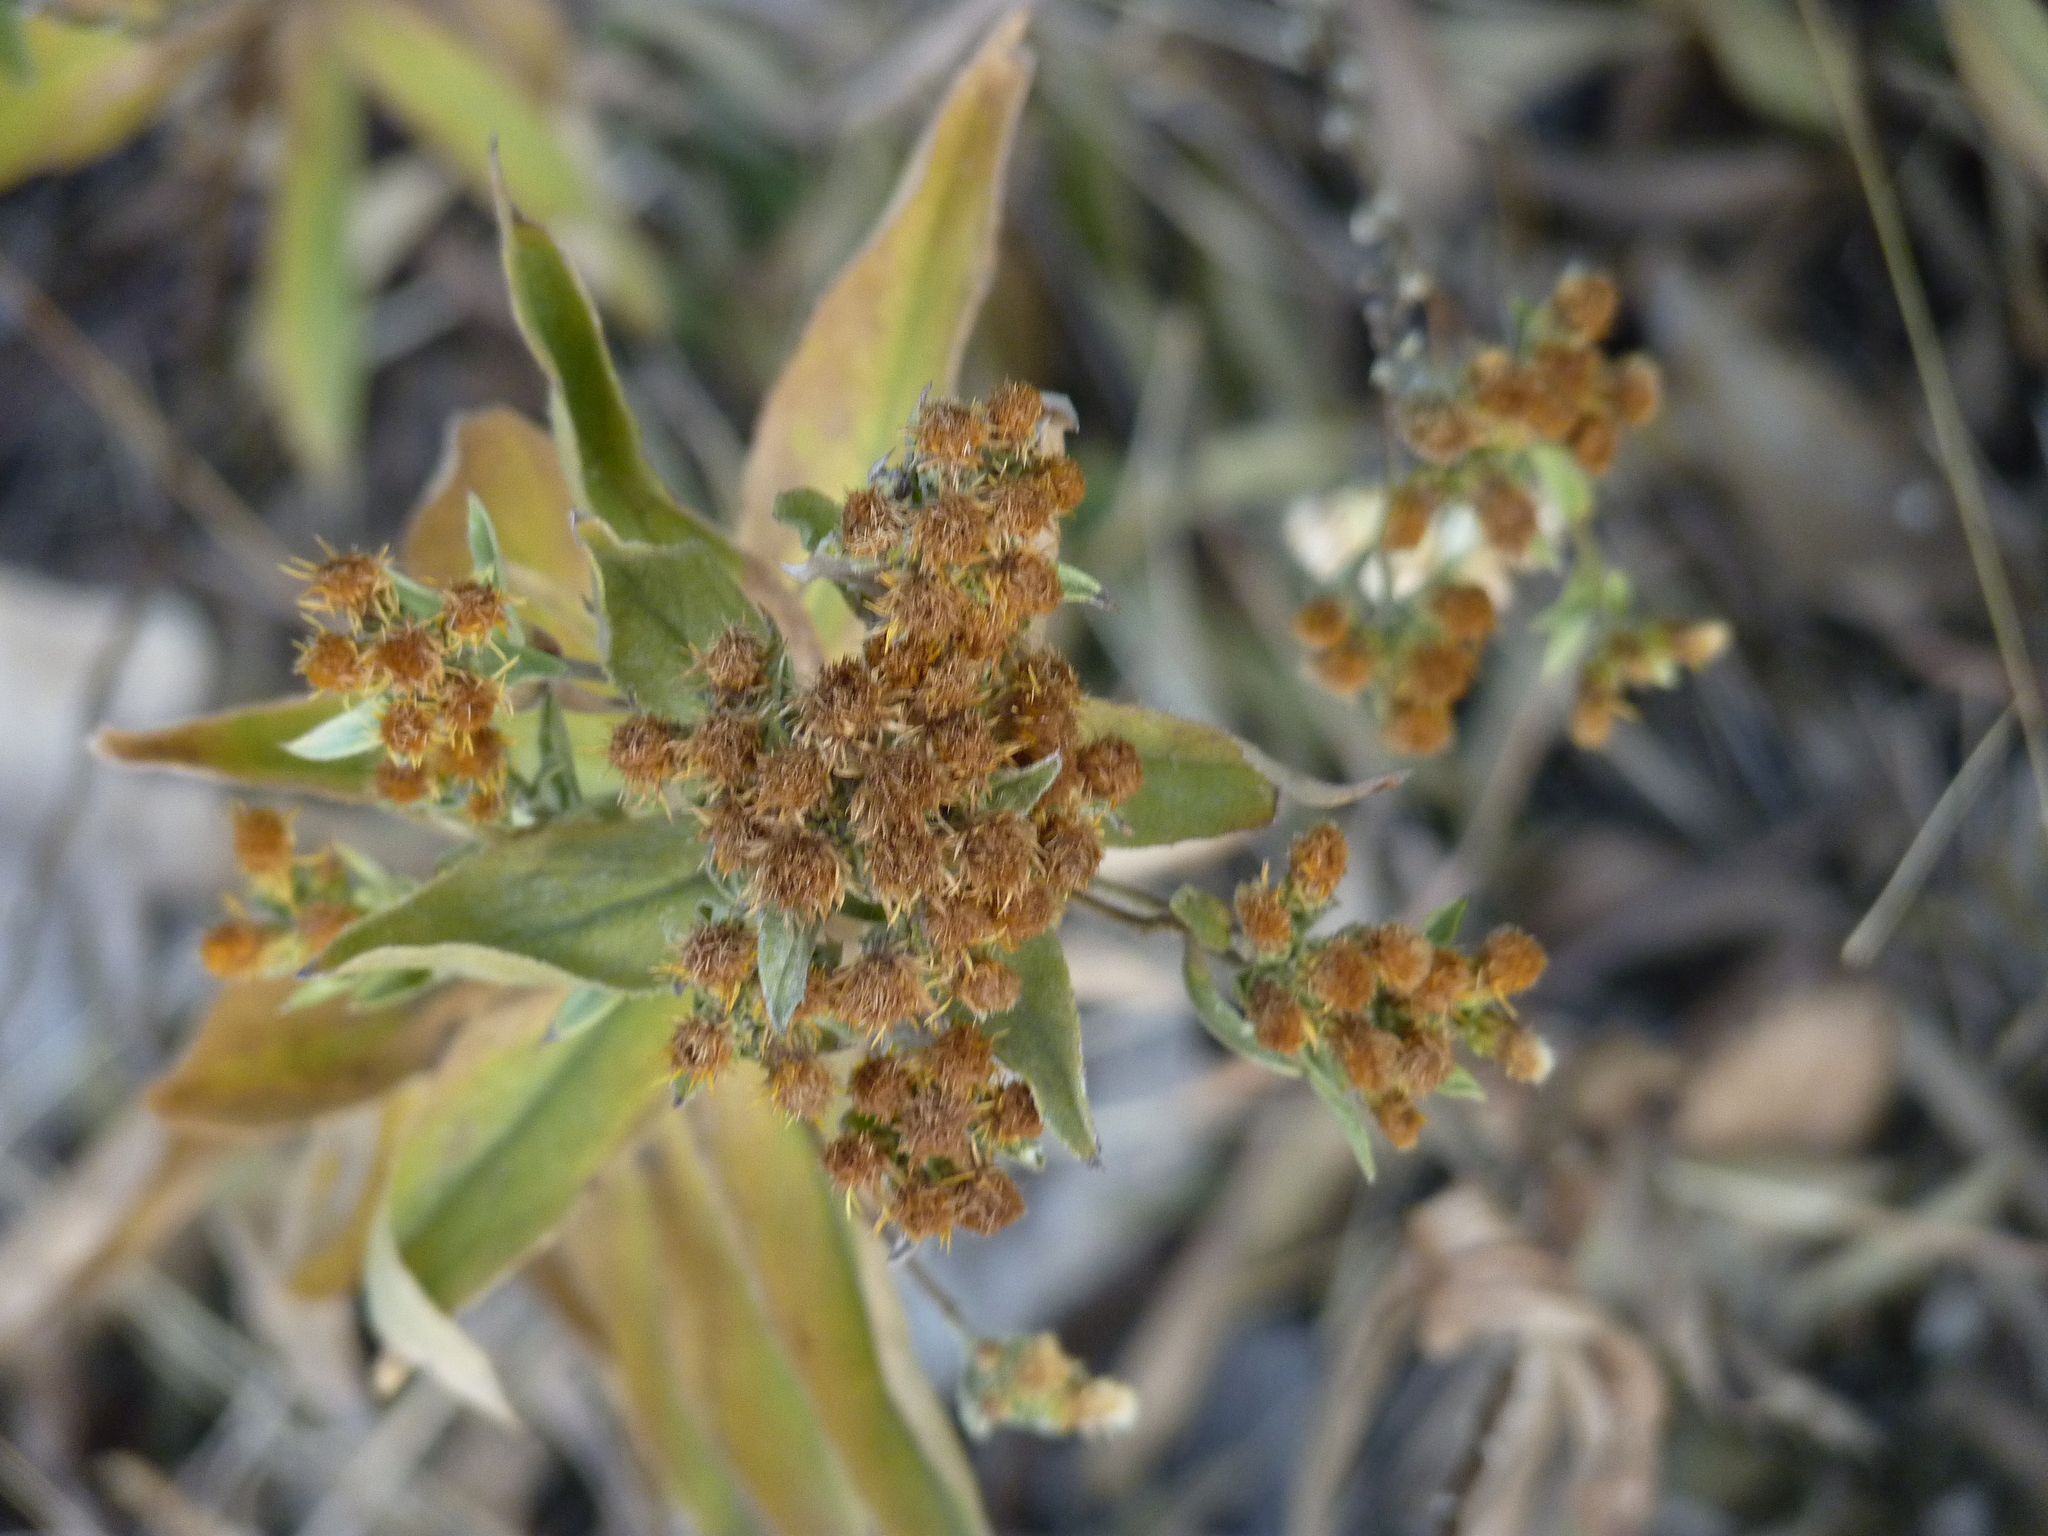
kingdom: Plantae
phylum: Tracheophyta
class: Magnoliopsida
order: Asterales
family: Asteraceae
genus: Pentanema
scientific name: Pentanema squarrosum
